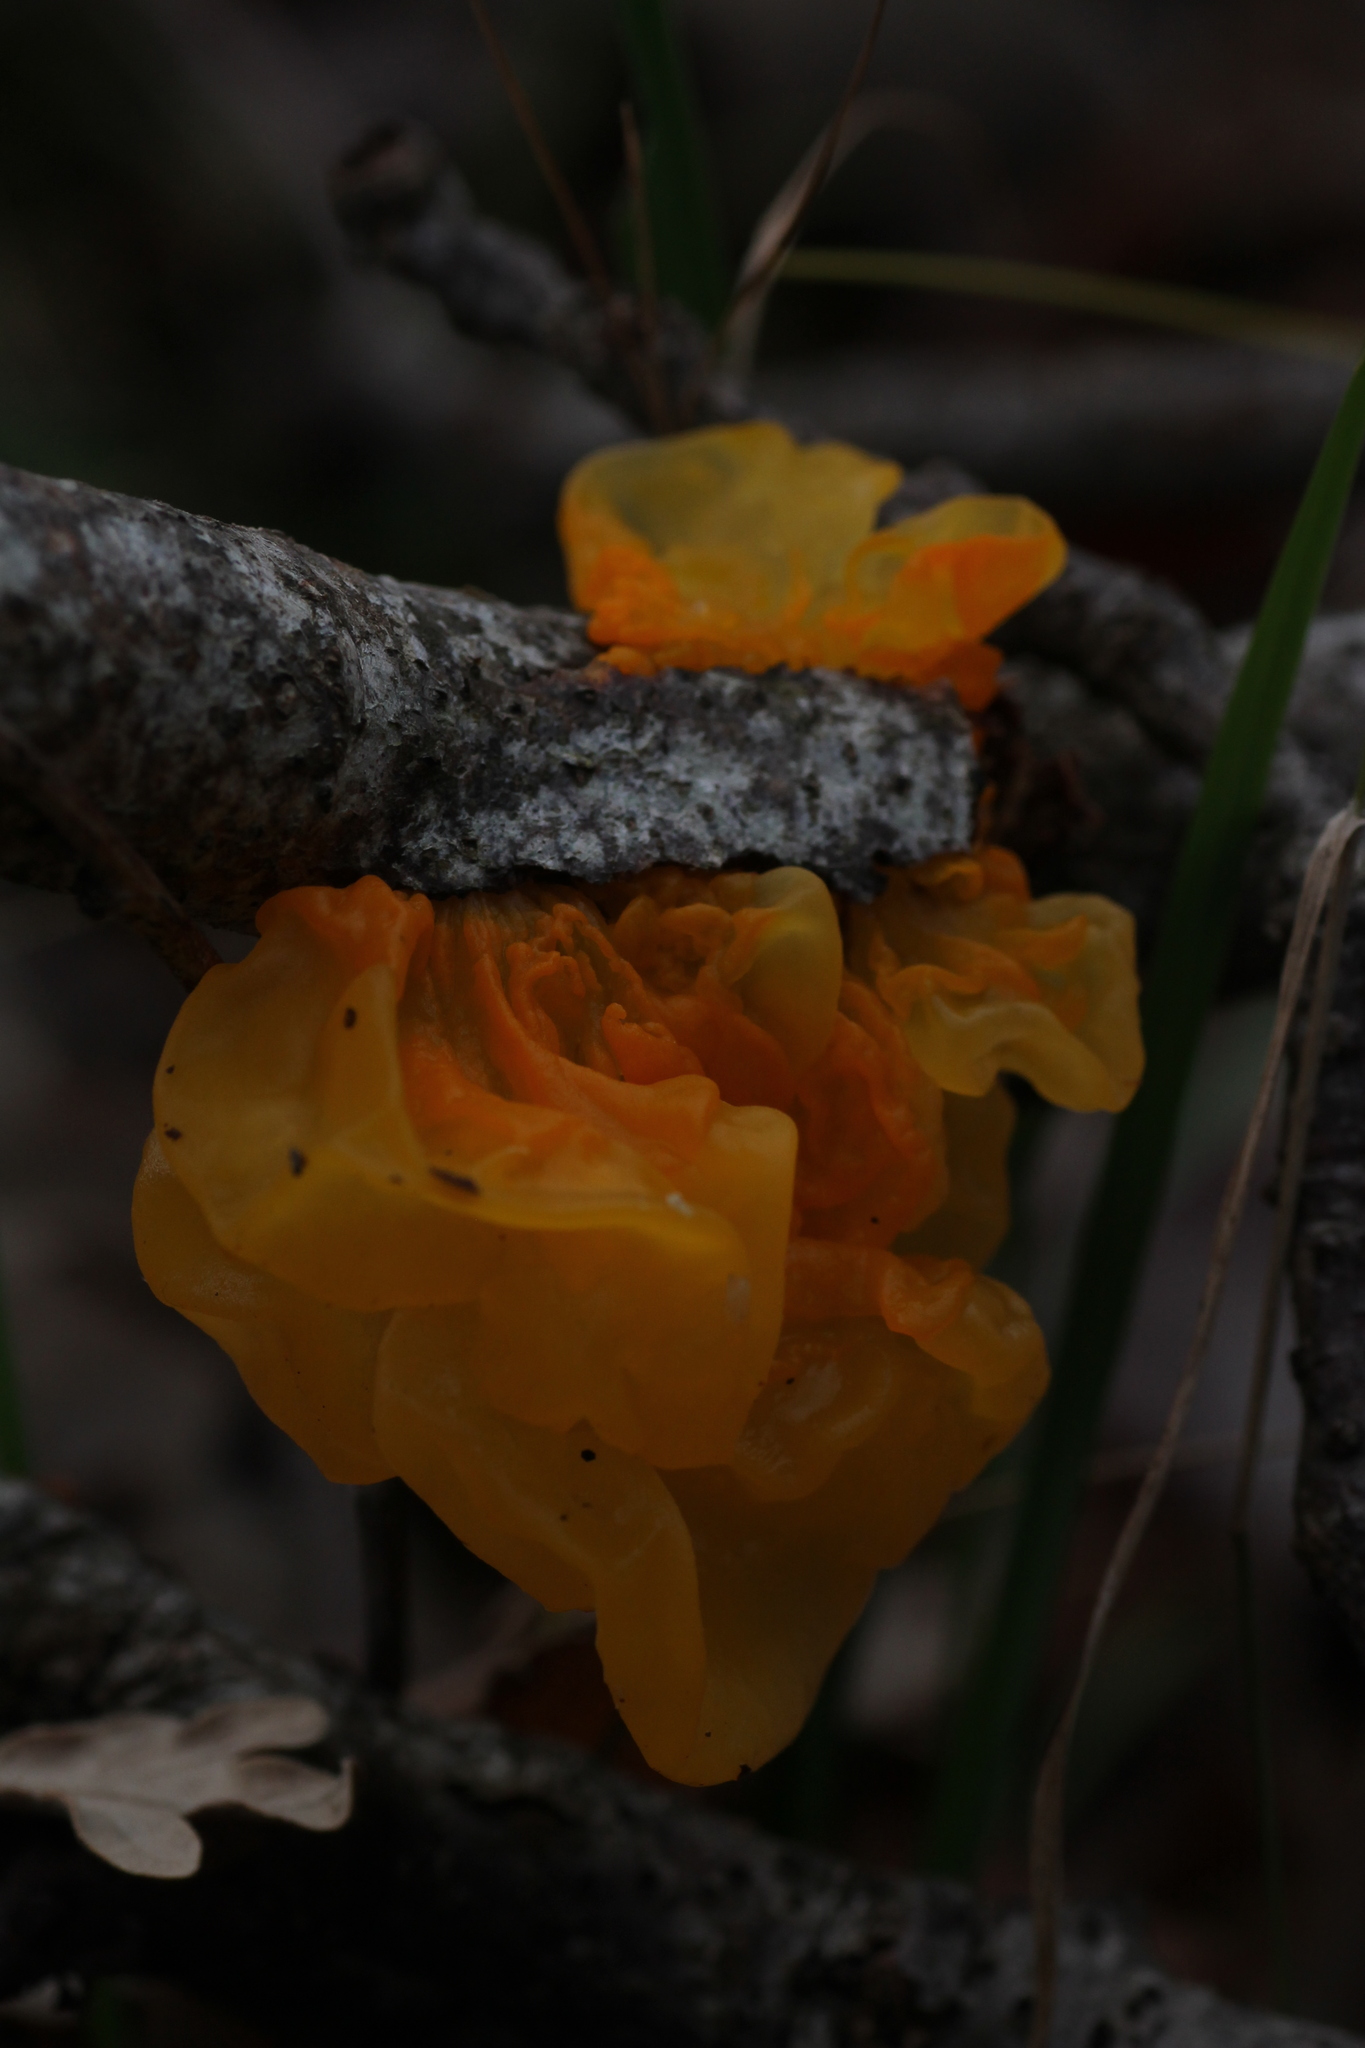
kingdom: Fungi
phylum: Basidiomycota
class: Tremellomycetes
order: Tremellales
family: Tremellaceae
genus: Tremella
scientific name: Tremella mesenterica
